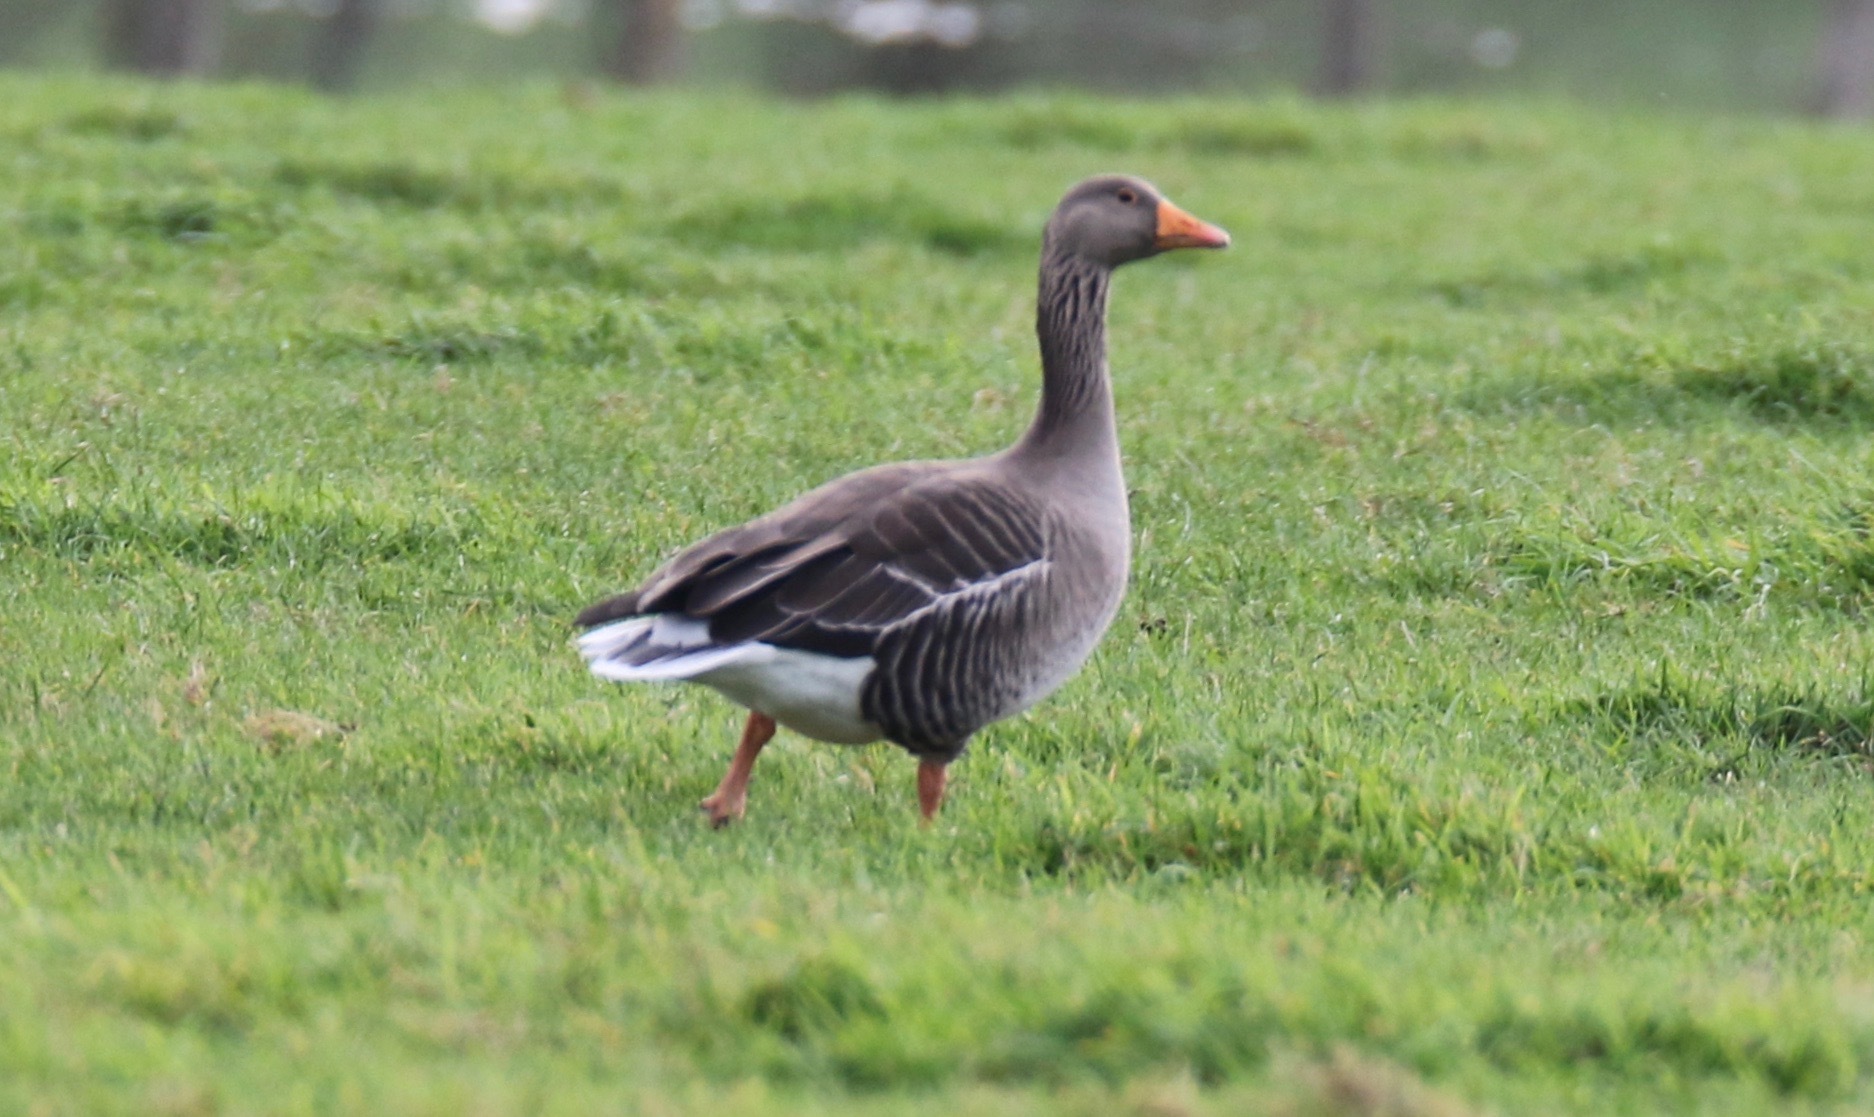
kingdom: Animalia
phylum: Chordata
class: Aves
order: Anseriformes
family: Anatidae
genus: Anser
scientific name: Anser anser
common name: Greylag goose
